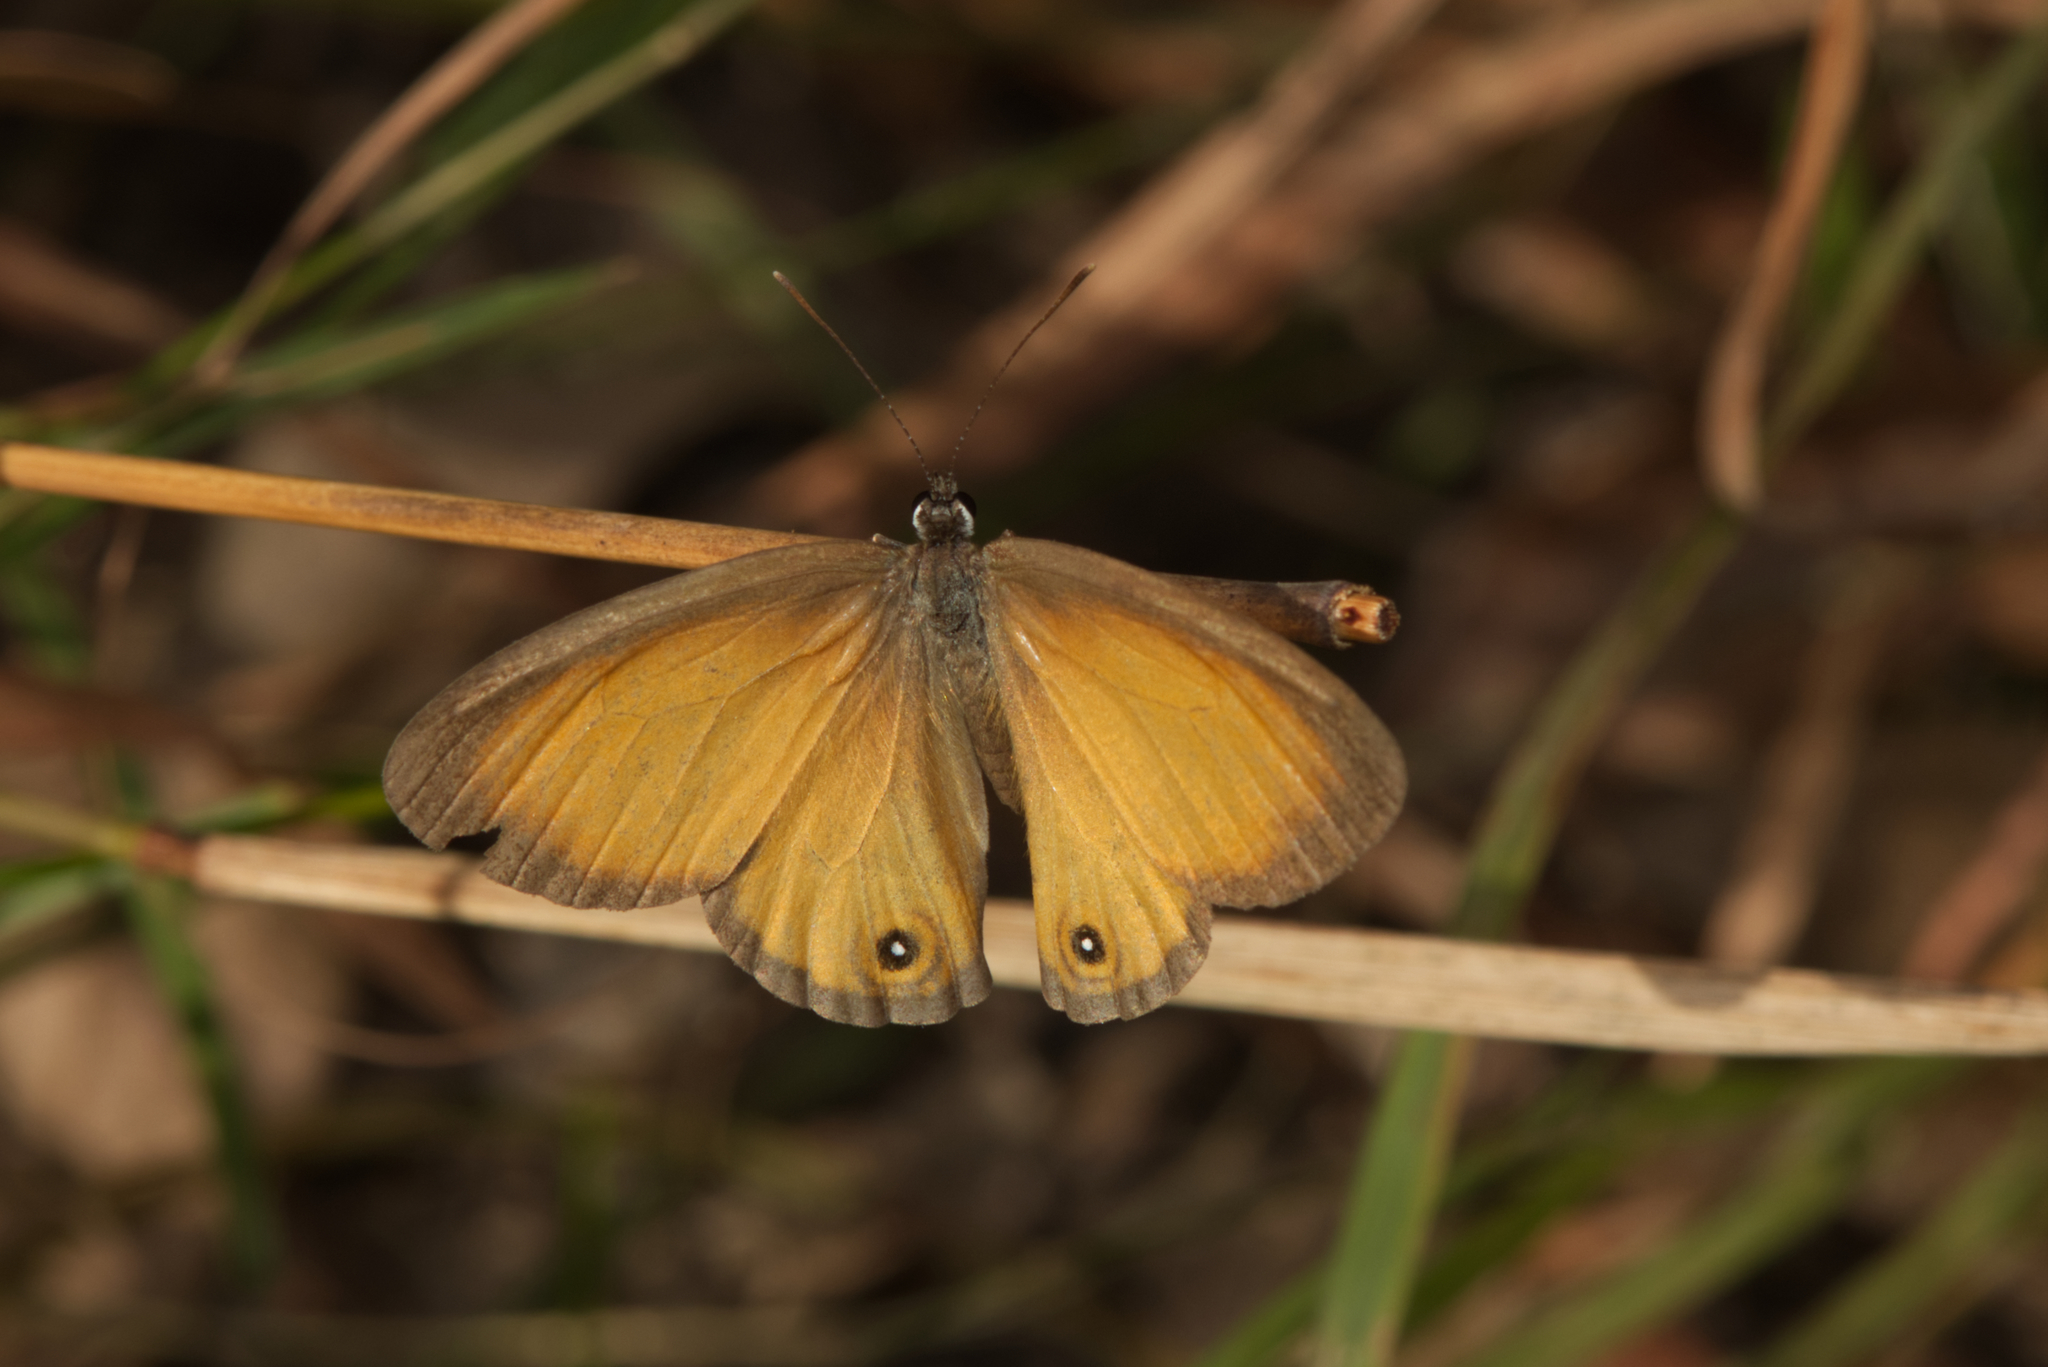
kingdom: Animalia
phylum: Arthropoda
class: Insecta
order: Lepidoptera
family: Nymphalidae
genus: Hypocysta
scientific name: Hypocysta adiante
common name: Orange ringlet
